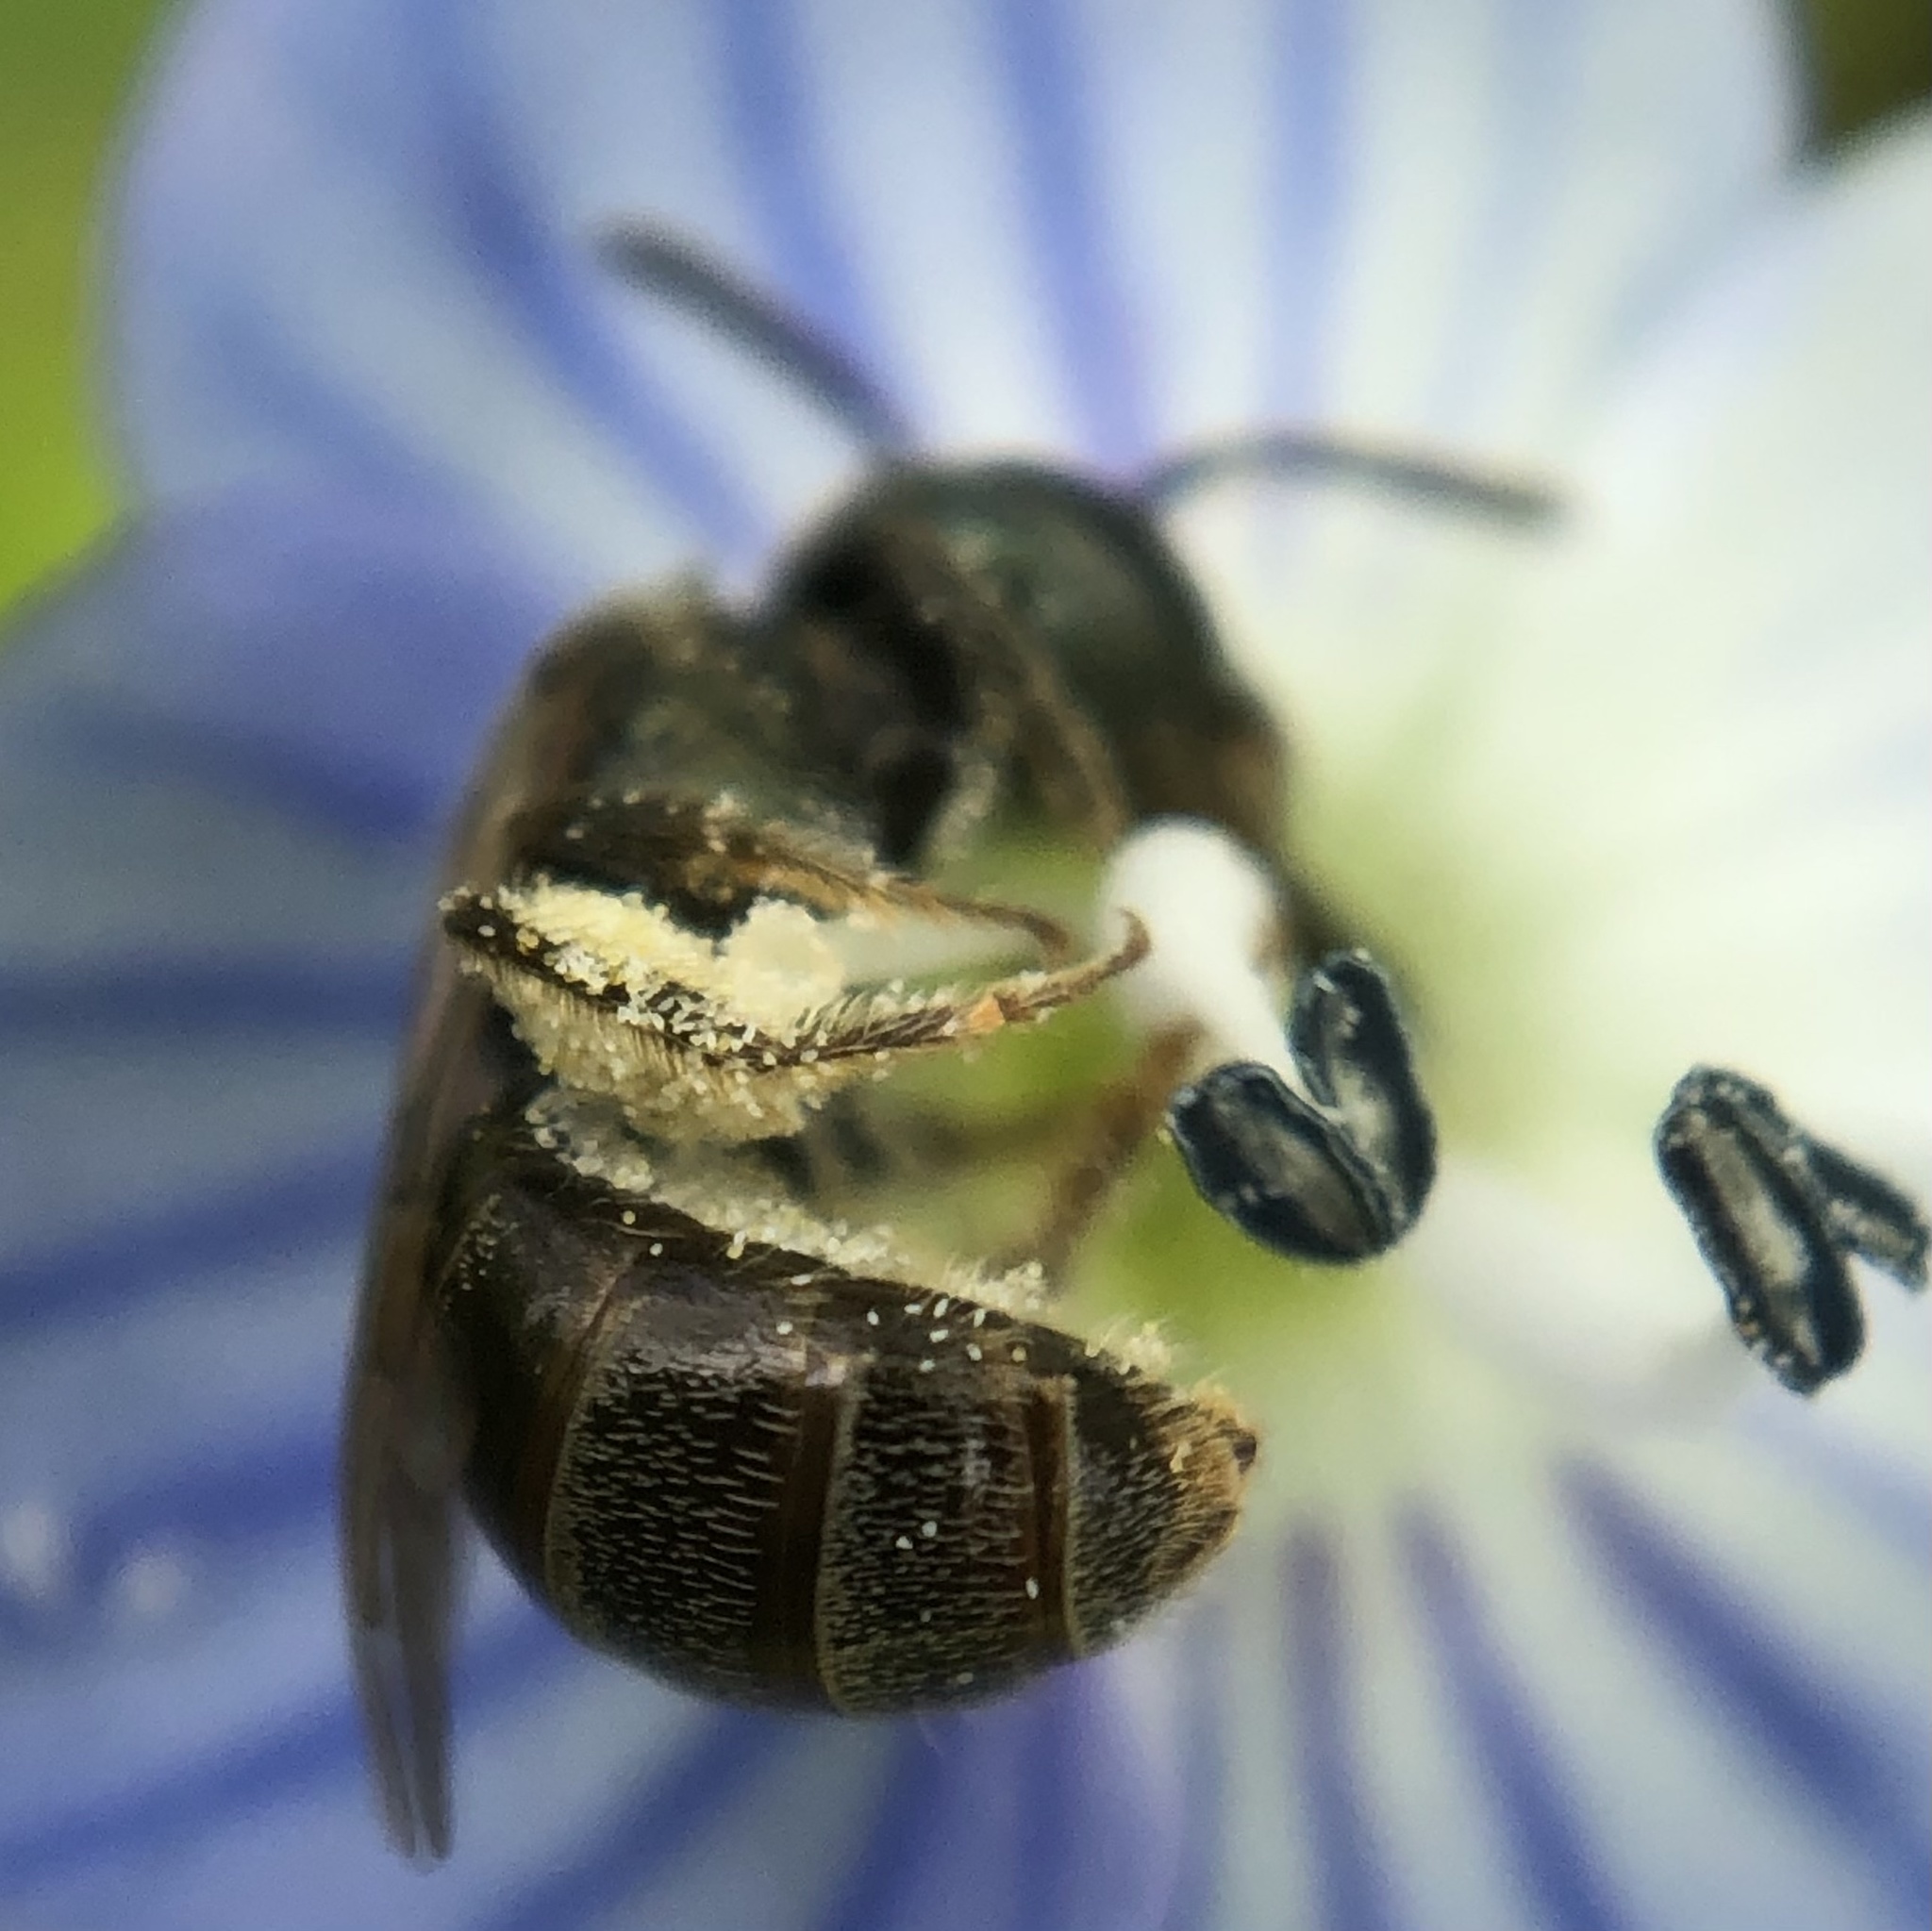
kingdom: Animalia
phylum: Arthropoda
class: Insecta
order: Hymenoptera
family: Halictidae
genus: Lasioglossum
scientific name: Lasioglossum imitatum
